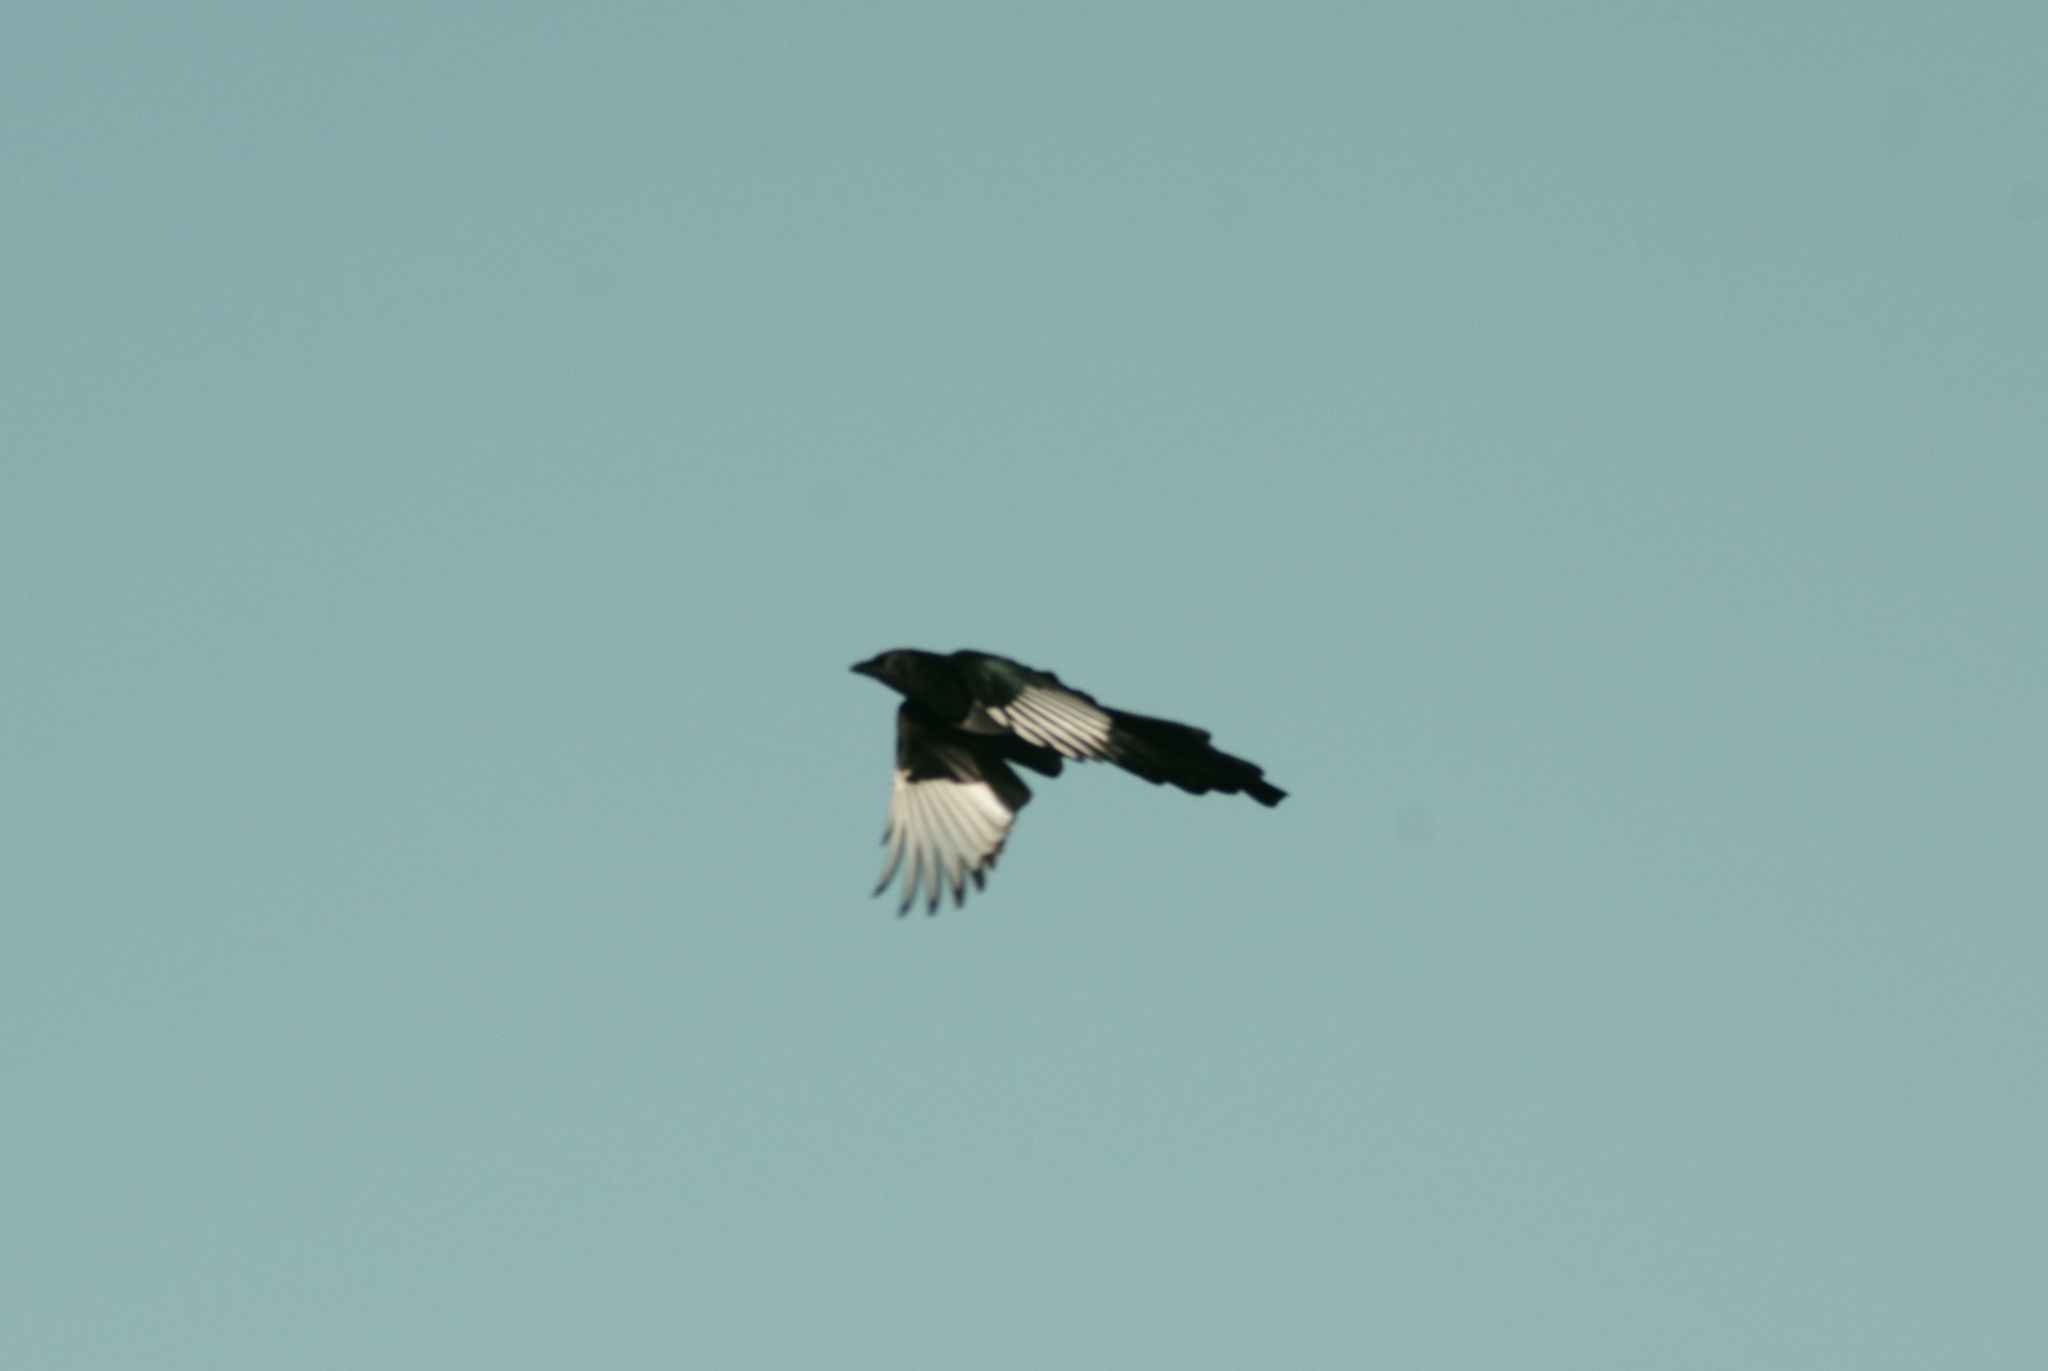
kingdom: Animalia
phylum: Chordata
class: Aves
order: Passeriformes
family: Corvidae
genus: Pica
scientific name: Pica pica
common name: Eurasian magpie
